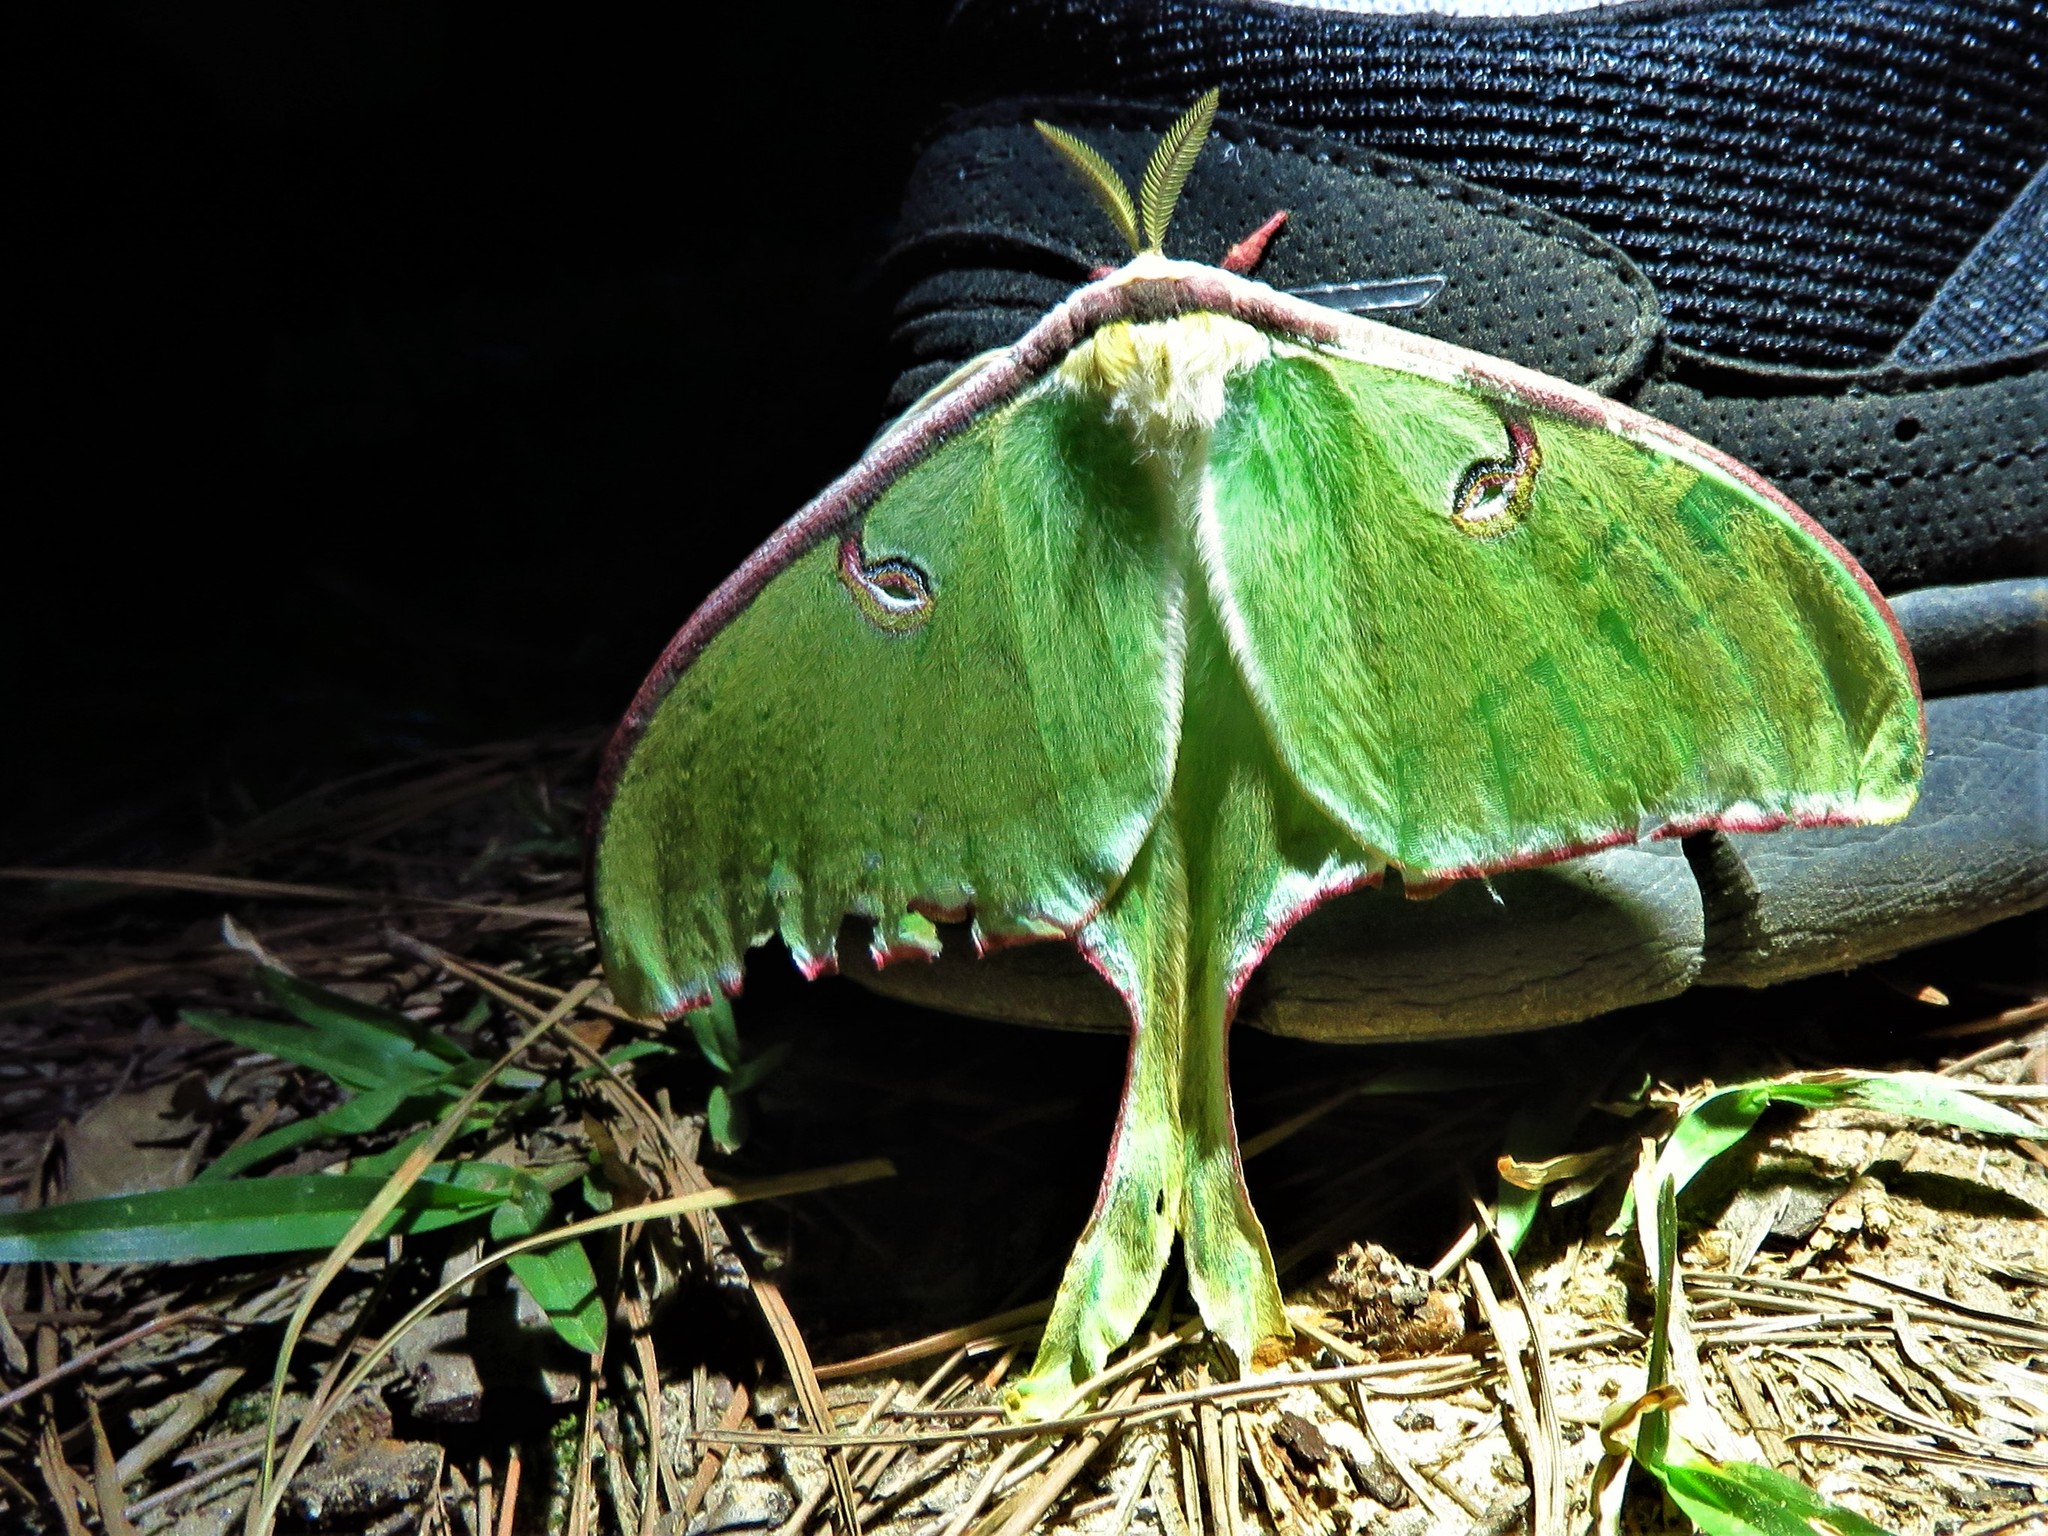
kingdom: Animalia
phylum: Arthropoda
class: Insecta
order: Lepidoptera
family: Saturniidae
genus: Actias
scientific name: Actias luna
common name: Luna moth
